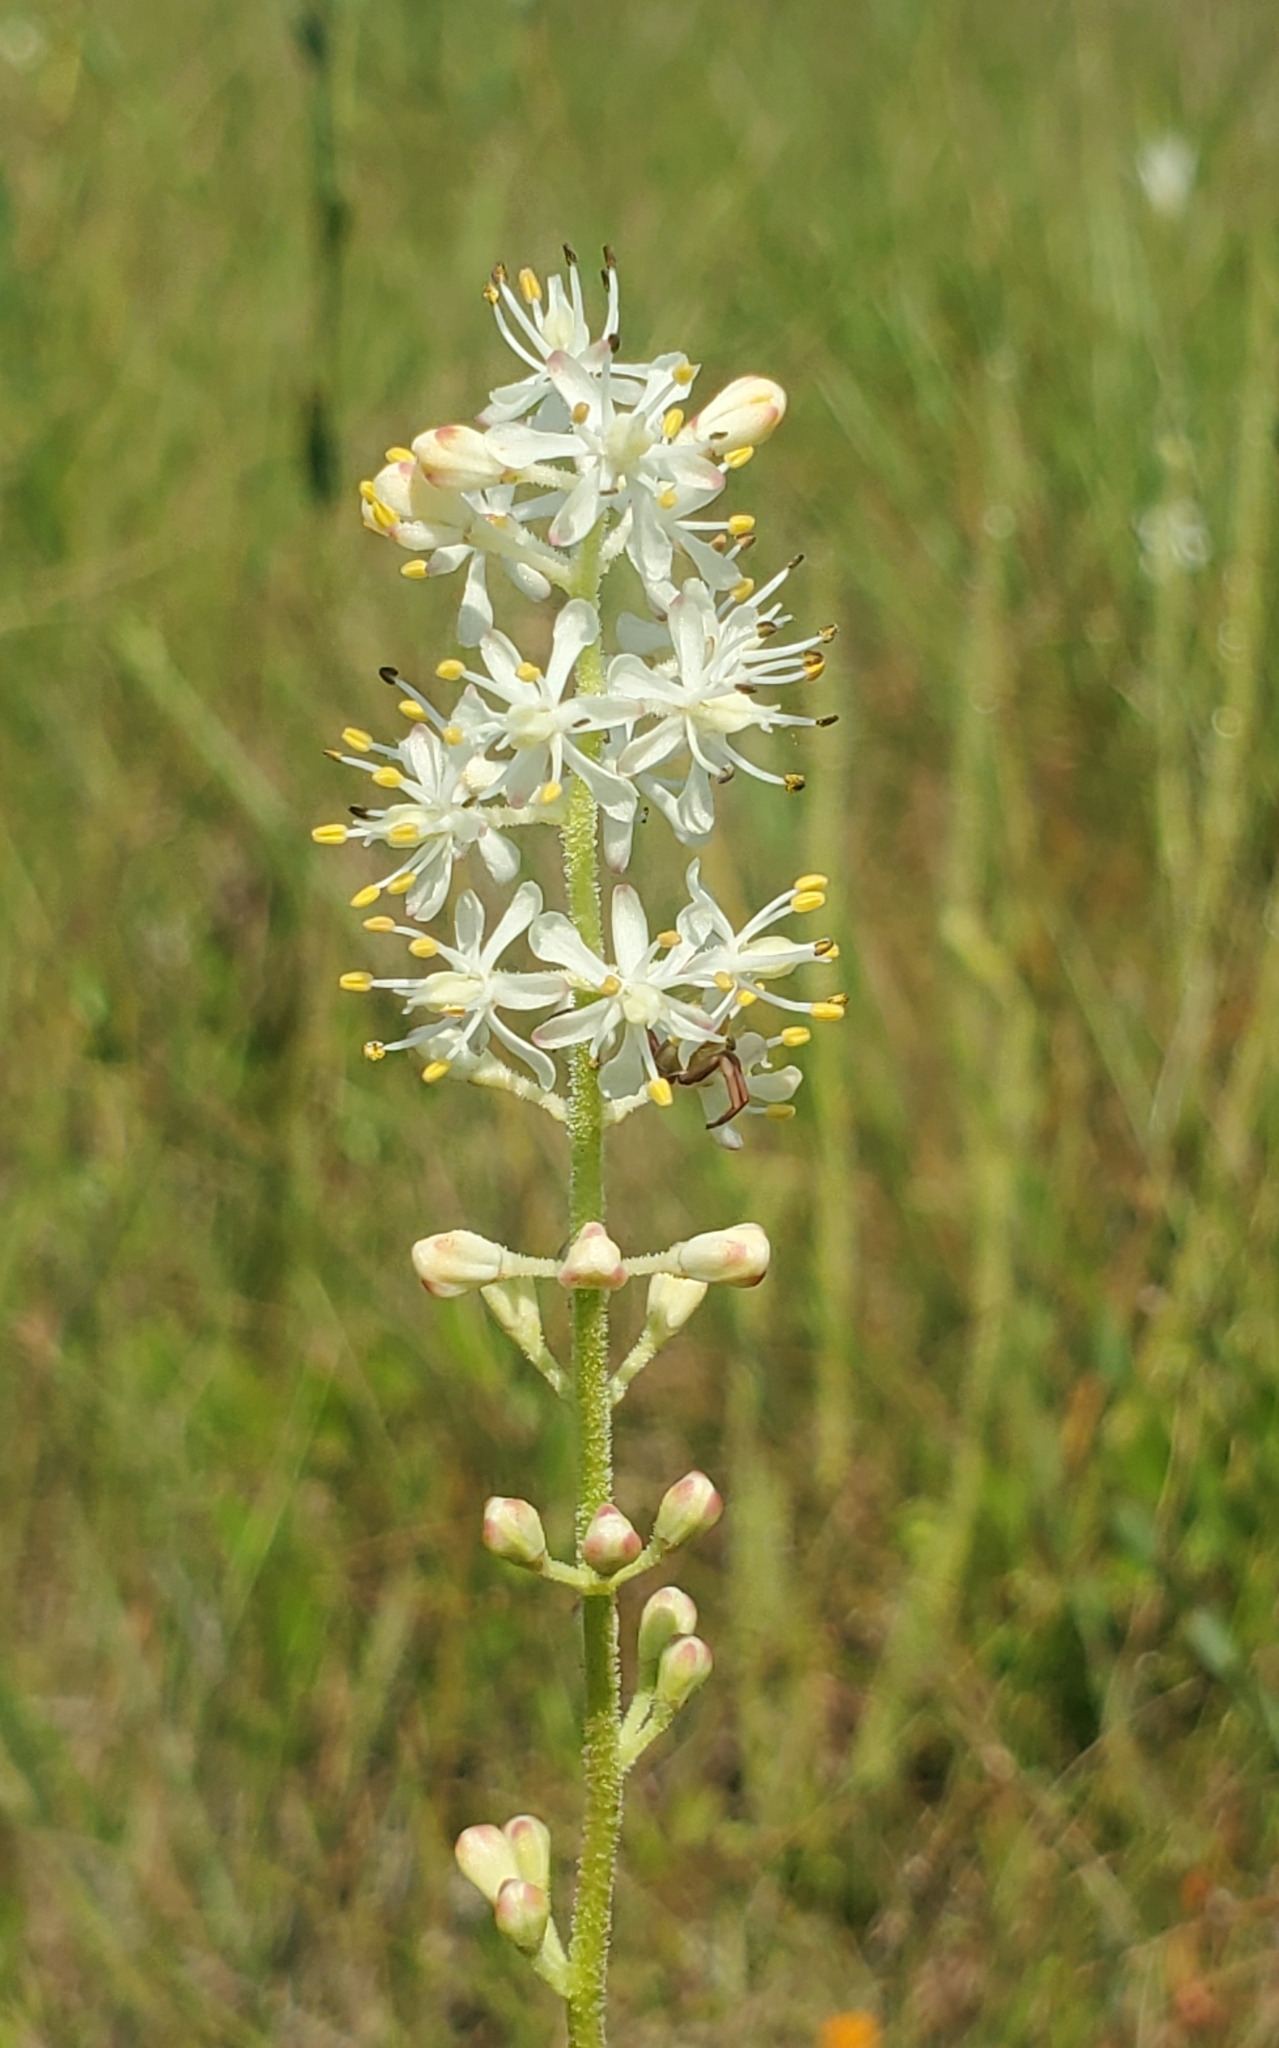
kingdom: Plantae
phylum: Tracheophyta
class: Liliopsida
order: Alismatales
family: Tofieldiaceae
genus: Triantha
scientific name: Triantha racemosa
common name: Coastal false asphodel
